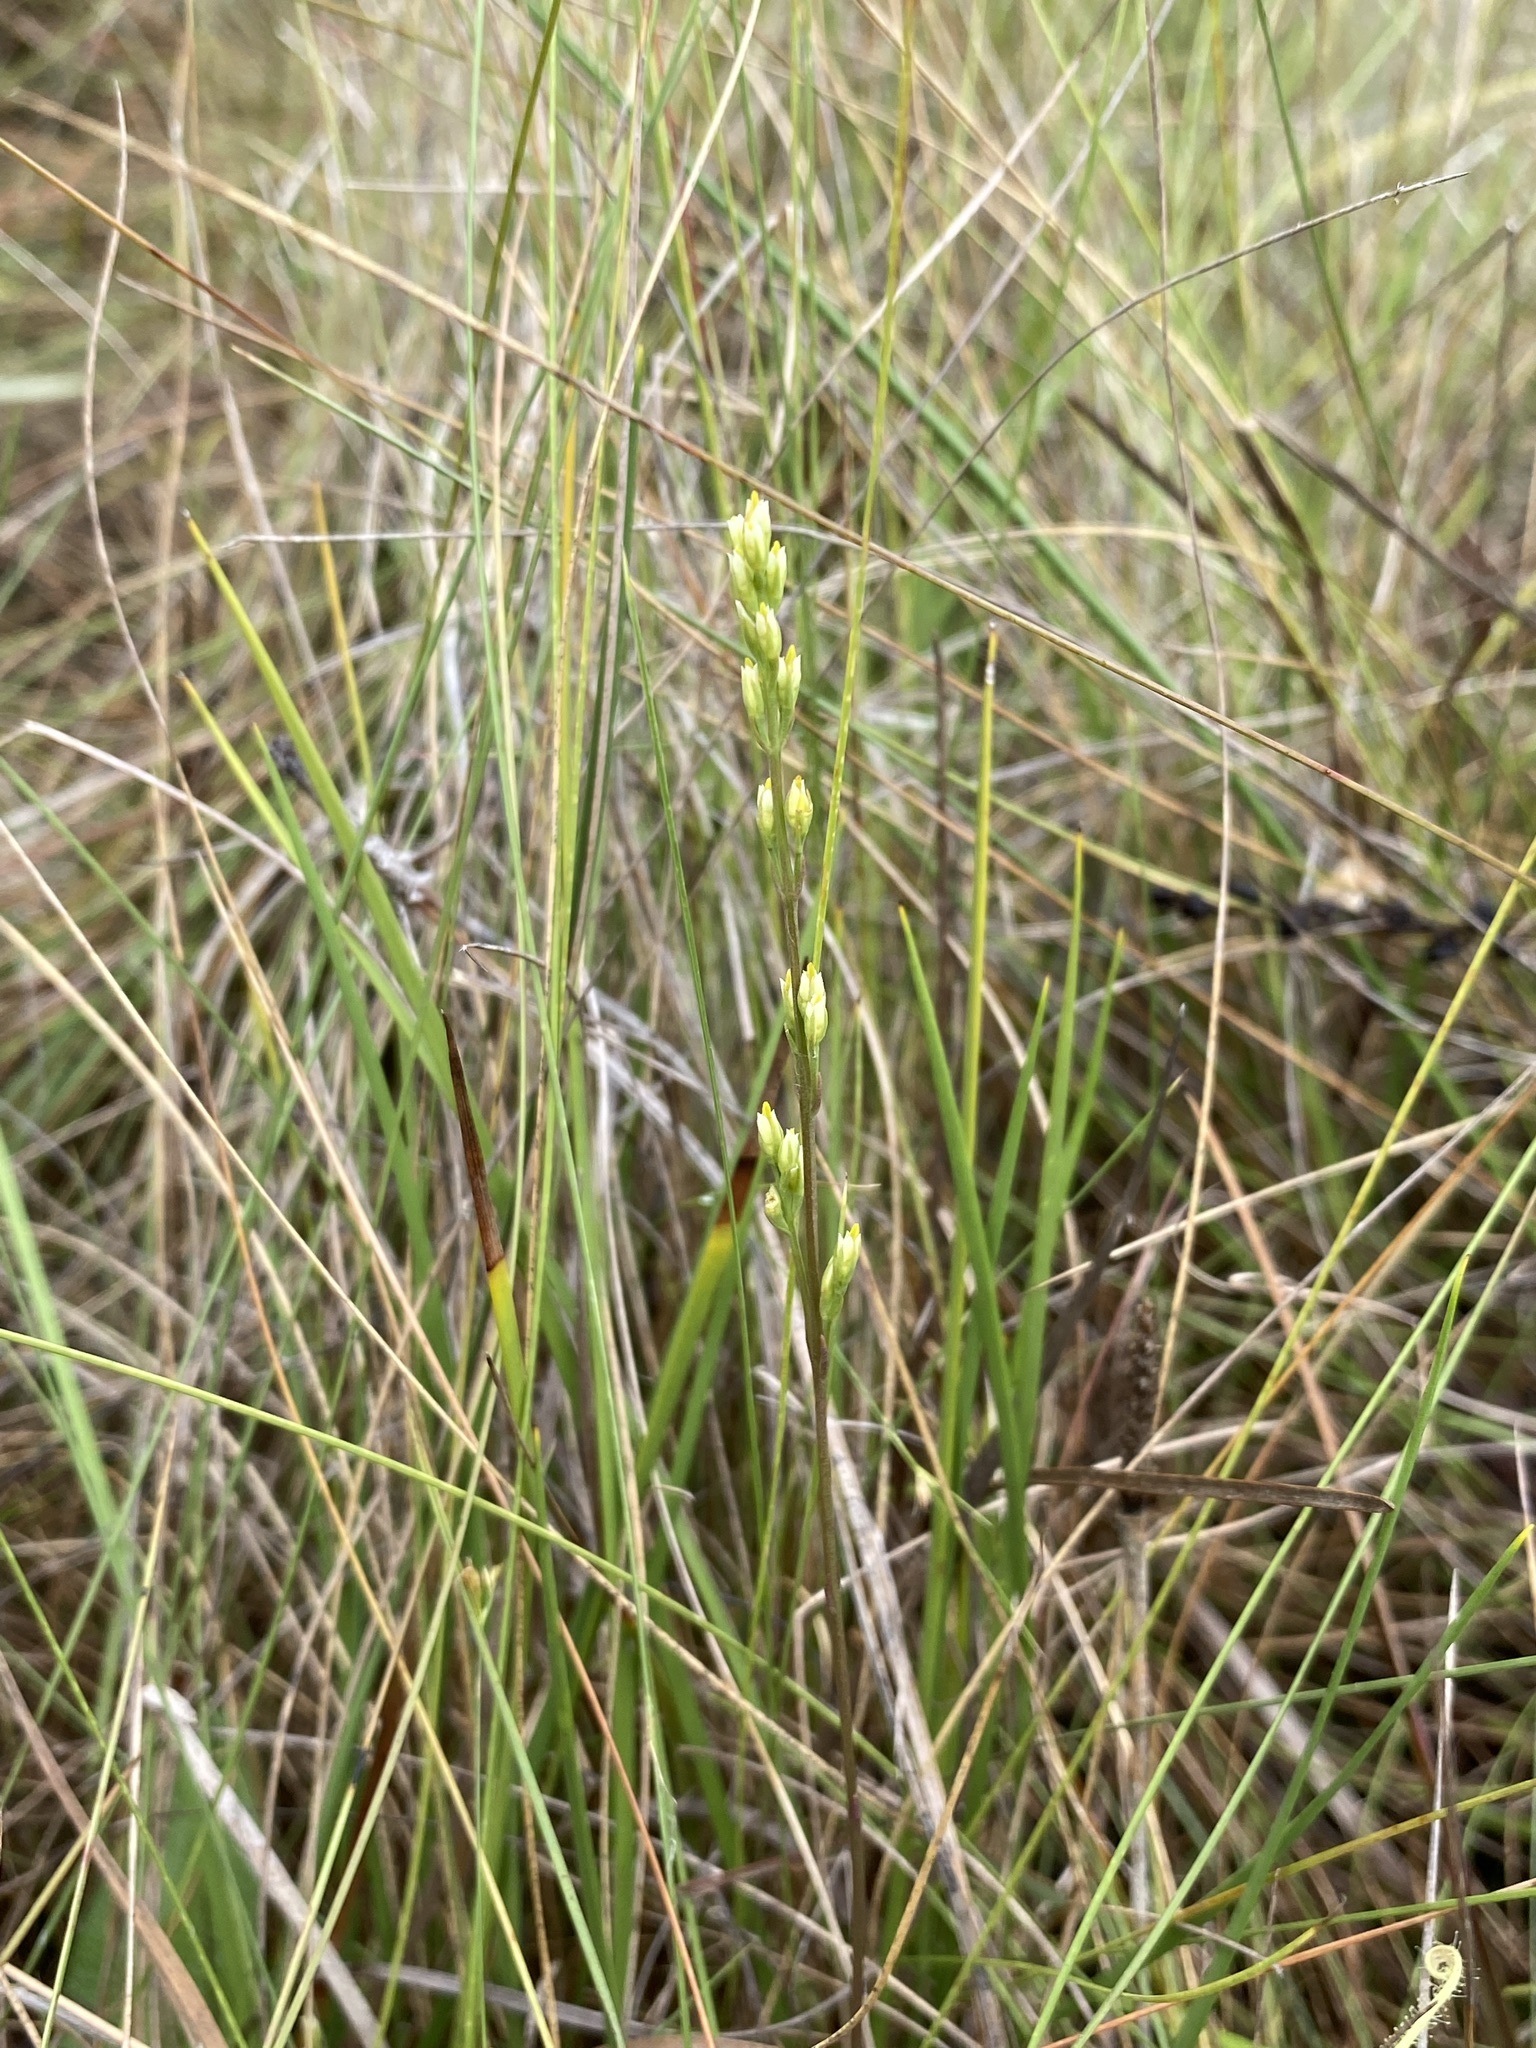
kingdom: Plantae
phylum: Tracheophyta
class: Magnoliopsida
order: Gentianales
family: Gentianaceae
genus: Bartonia
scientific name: Bartonia virginica
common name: Yellow bartonia
